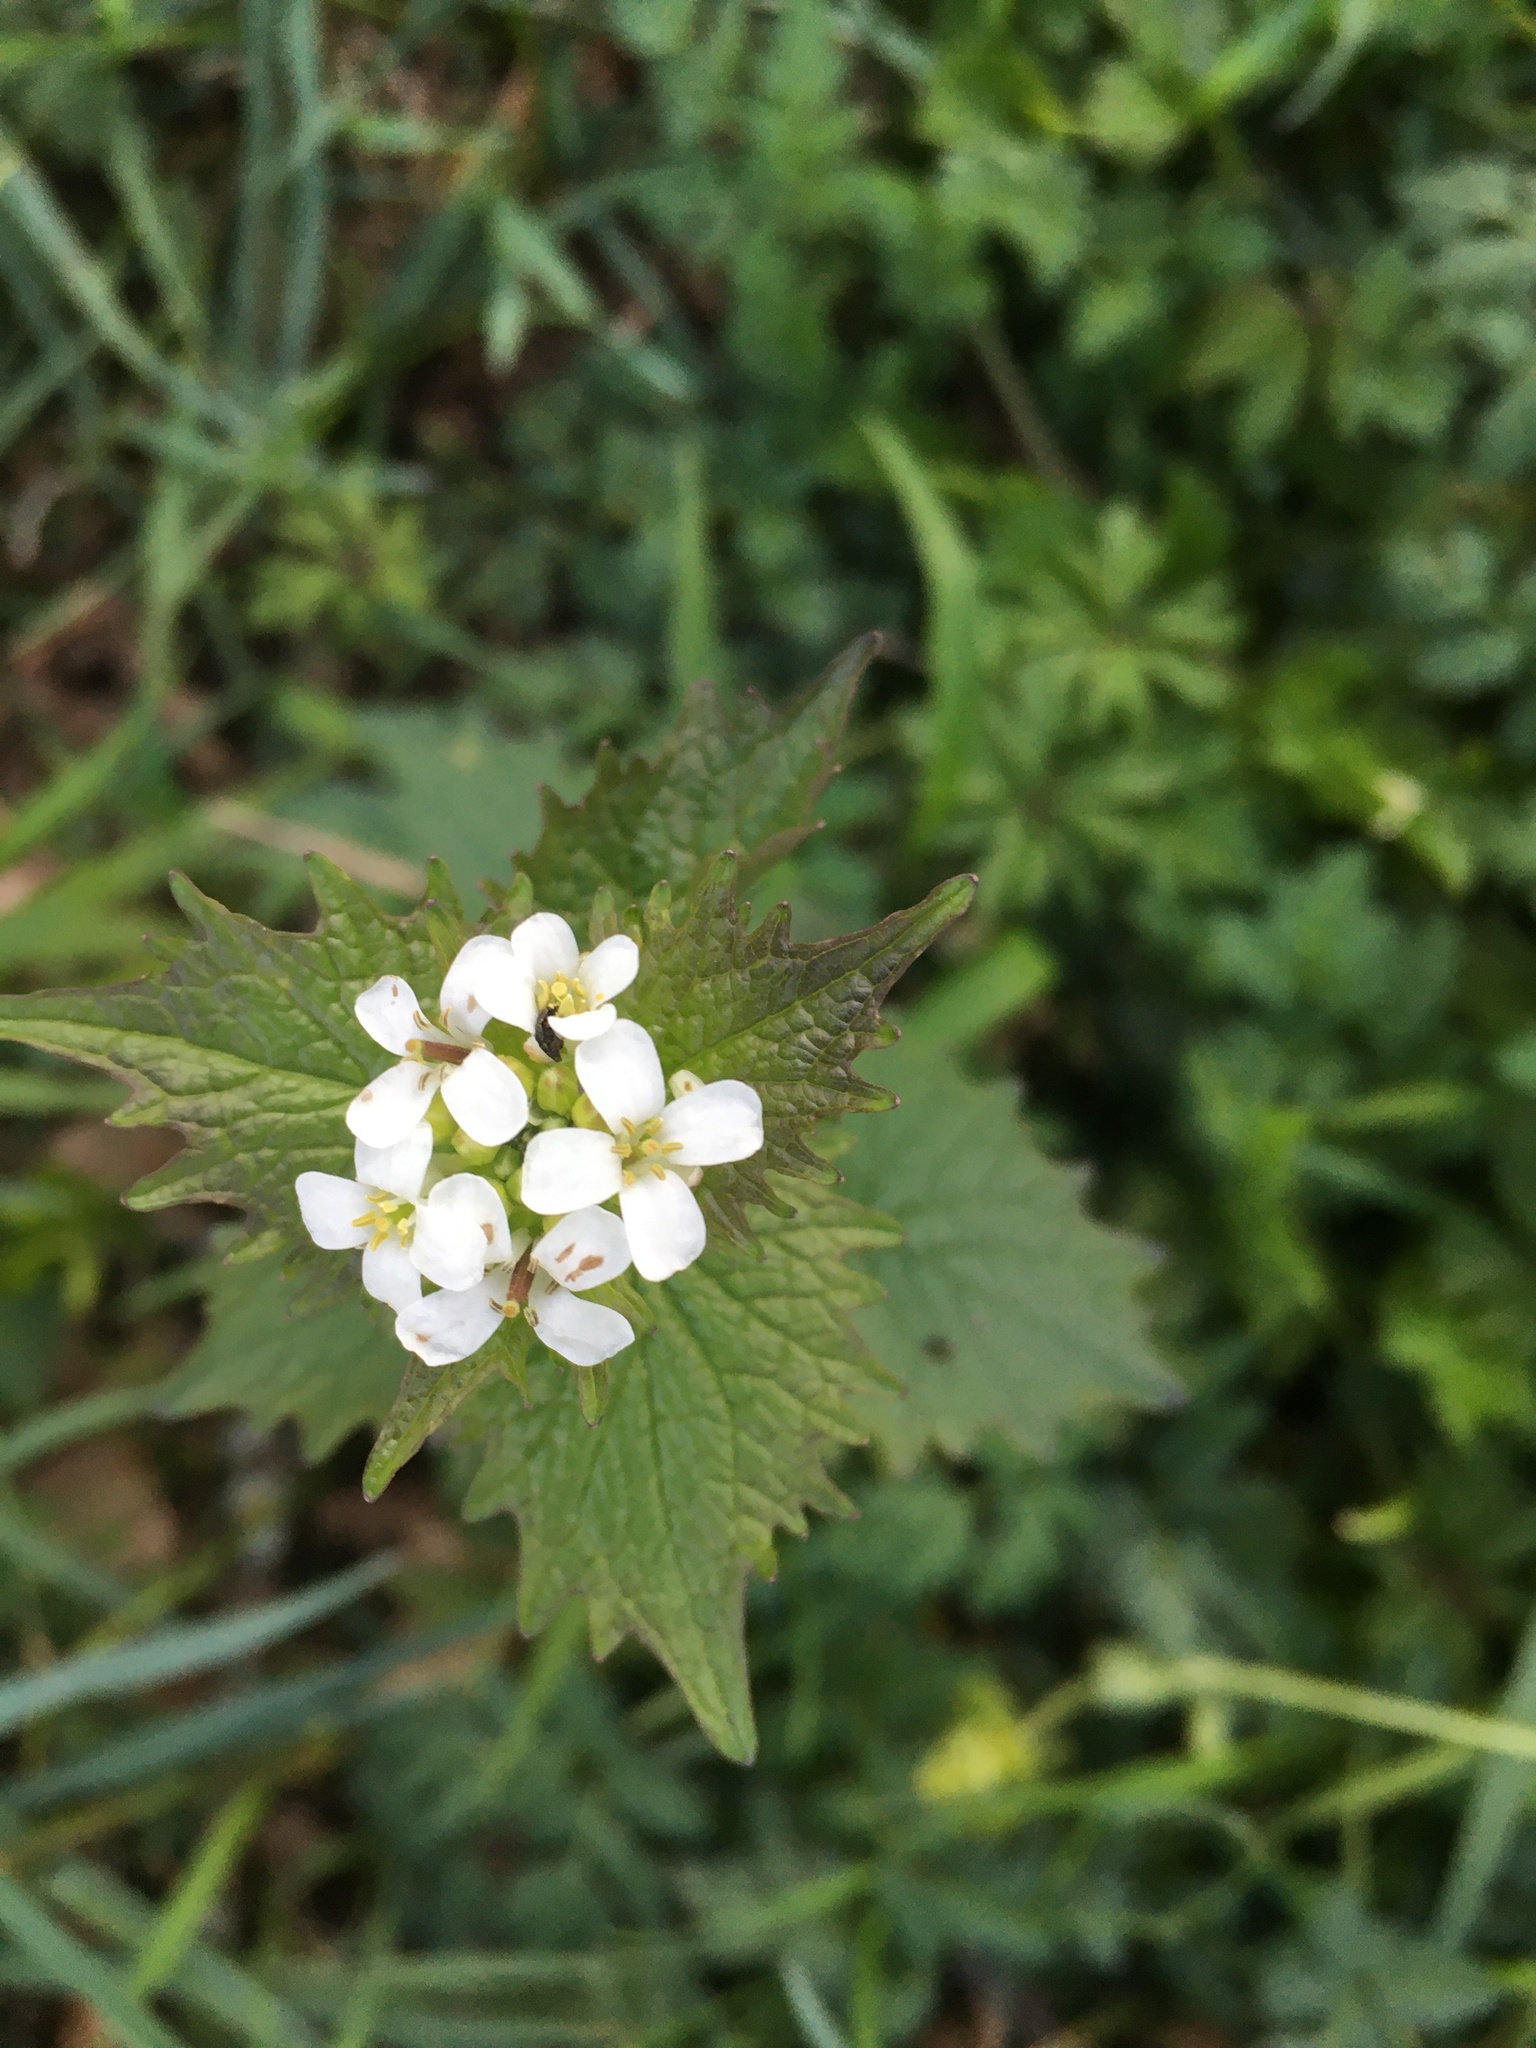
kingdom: Plantae
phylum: Tracheophyta
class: Magnoliopsida
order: Brassicales
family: Brassicaceae
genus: Alliaria
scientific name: Alliaria petiolata
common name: Garlic mustard
